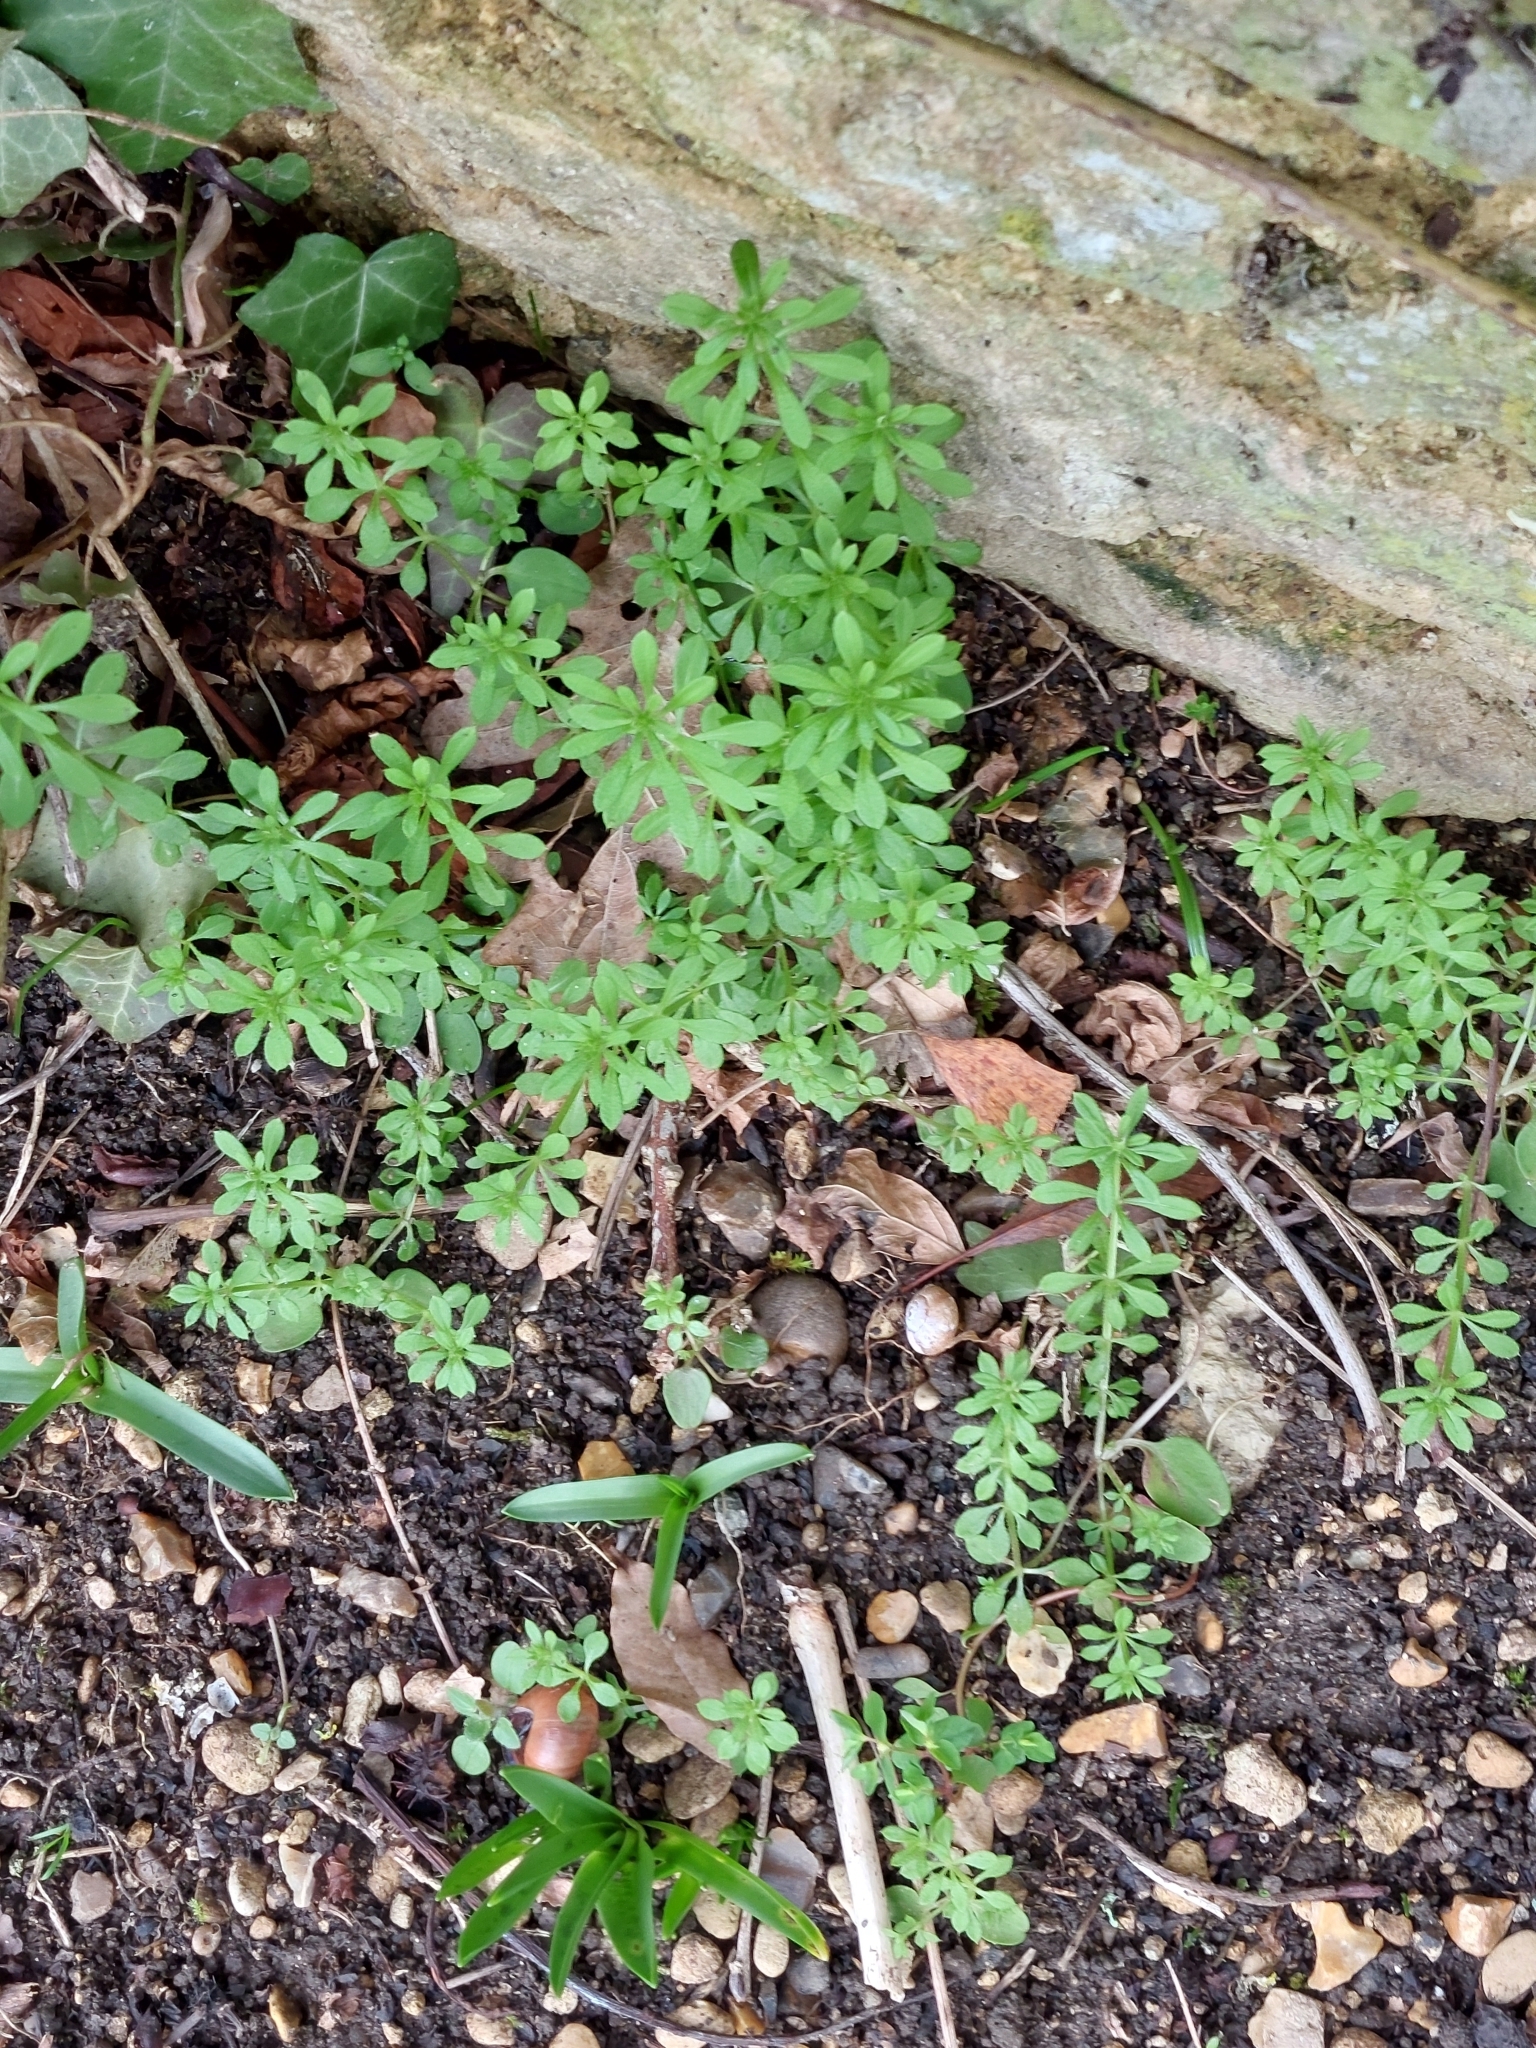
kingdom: Plantae
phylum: Tracheophyta
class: Magnoliopsida
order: Gentianales
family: Rubiaceae
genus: Galium
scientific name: Galium aparine
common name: Cleavers
